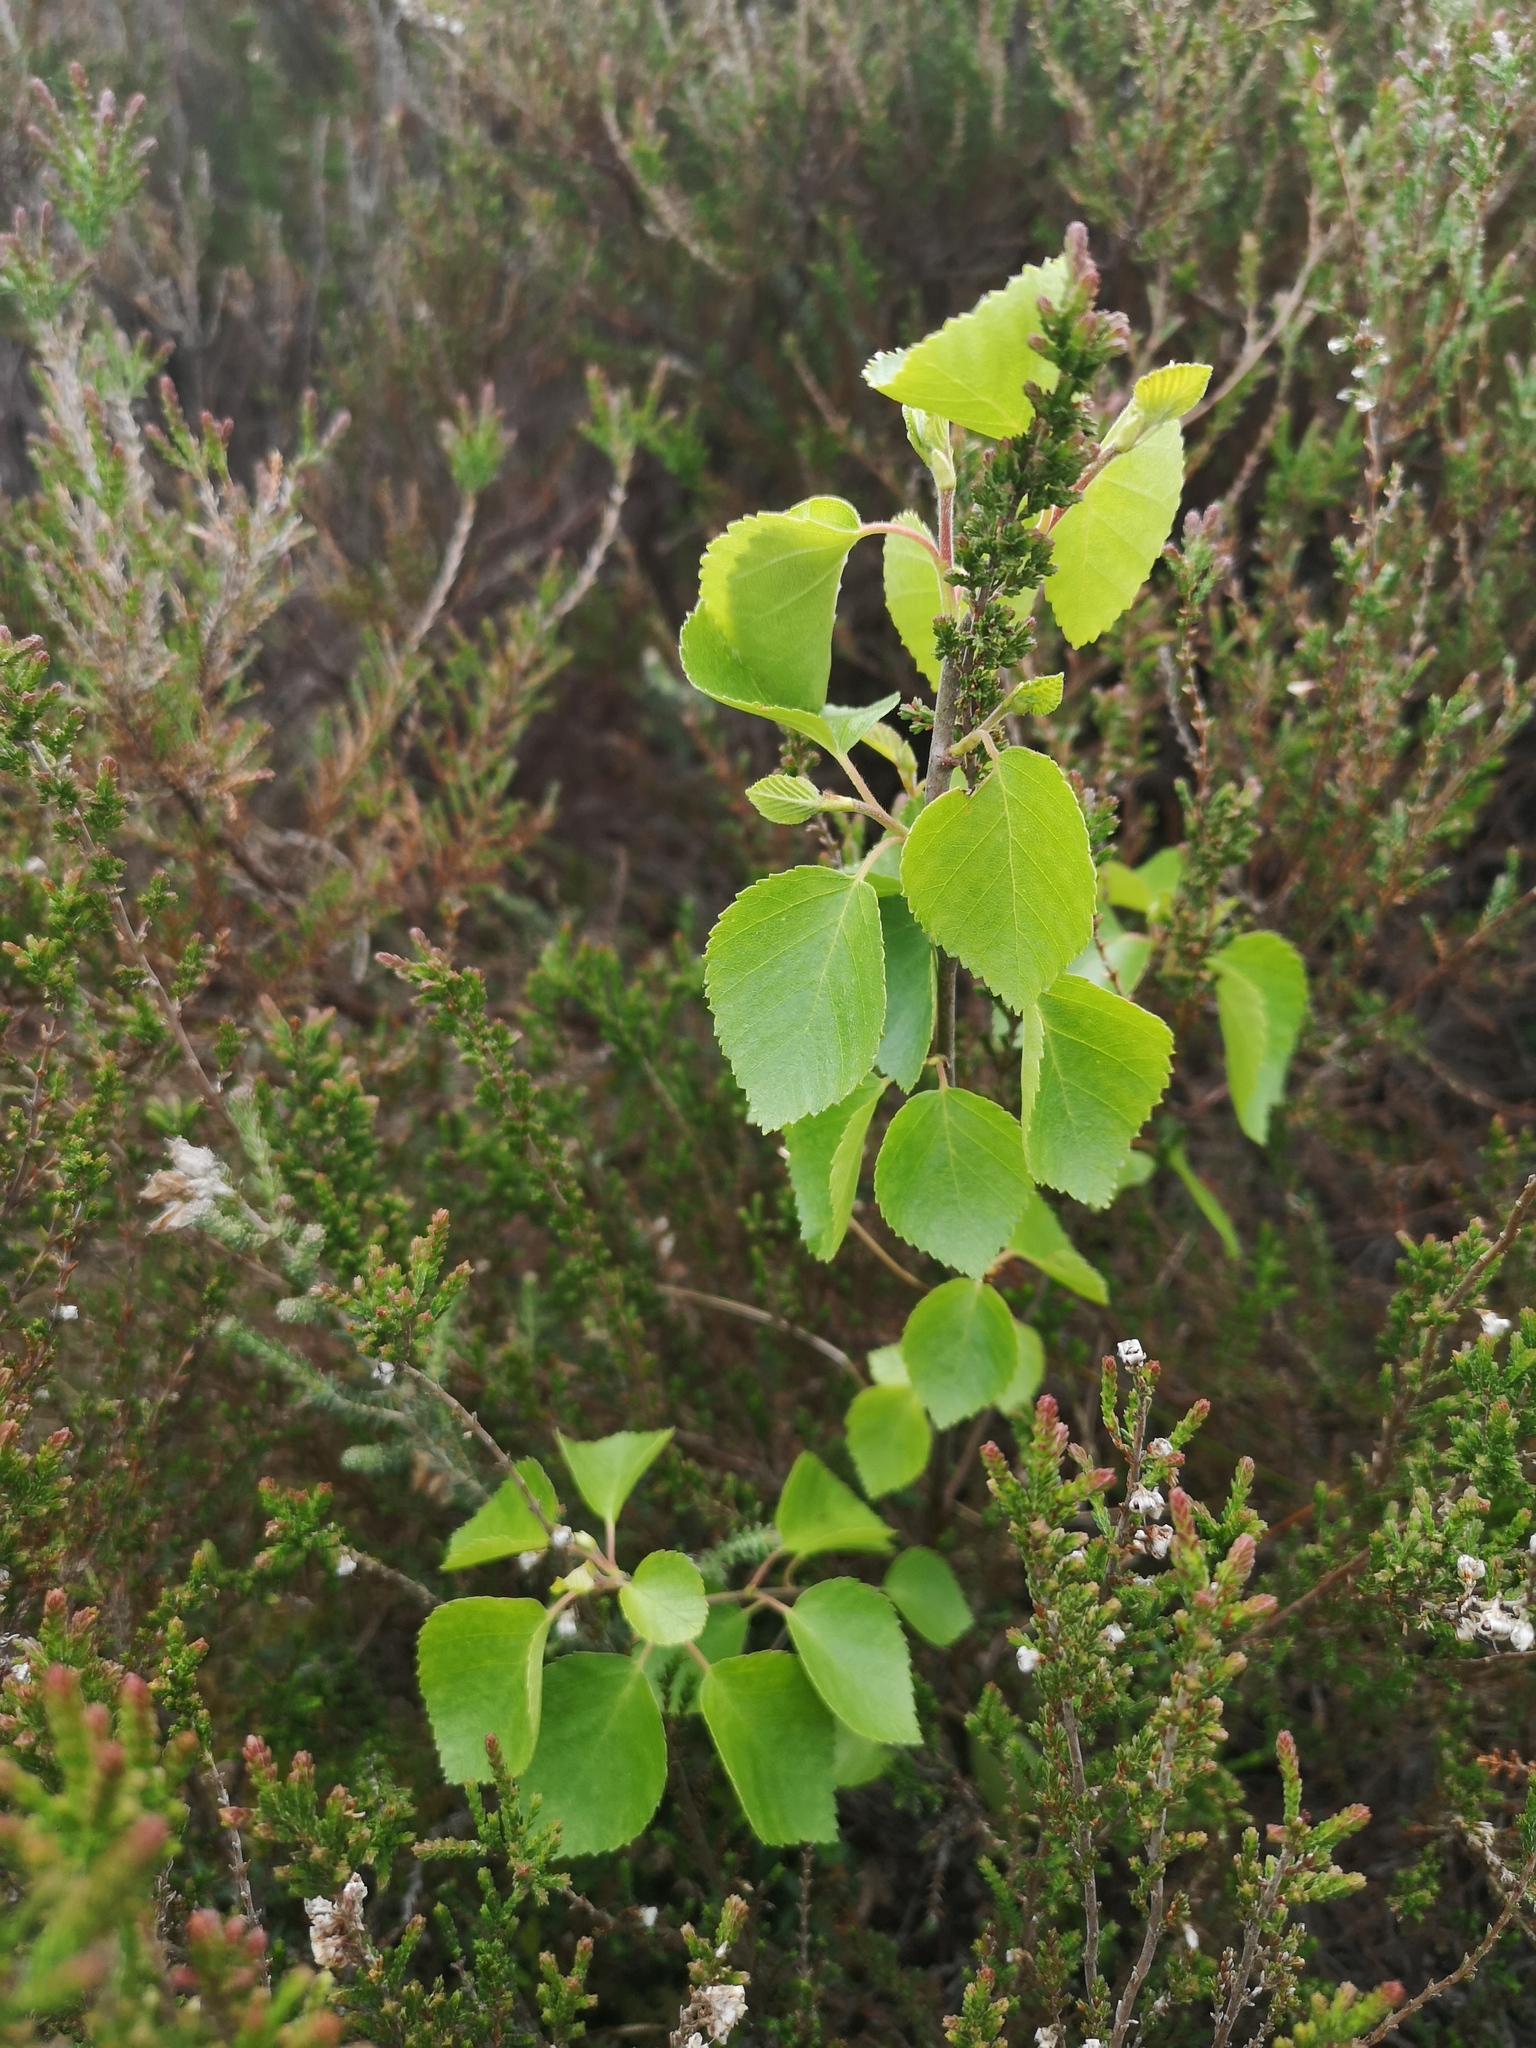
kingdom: Plantae
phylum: Tracheophyta
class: Magnoliopsida
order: Fagales
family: Betulaceae
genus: Betula
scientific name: Betula pubescens
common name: Downy birch
